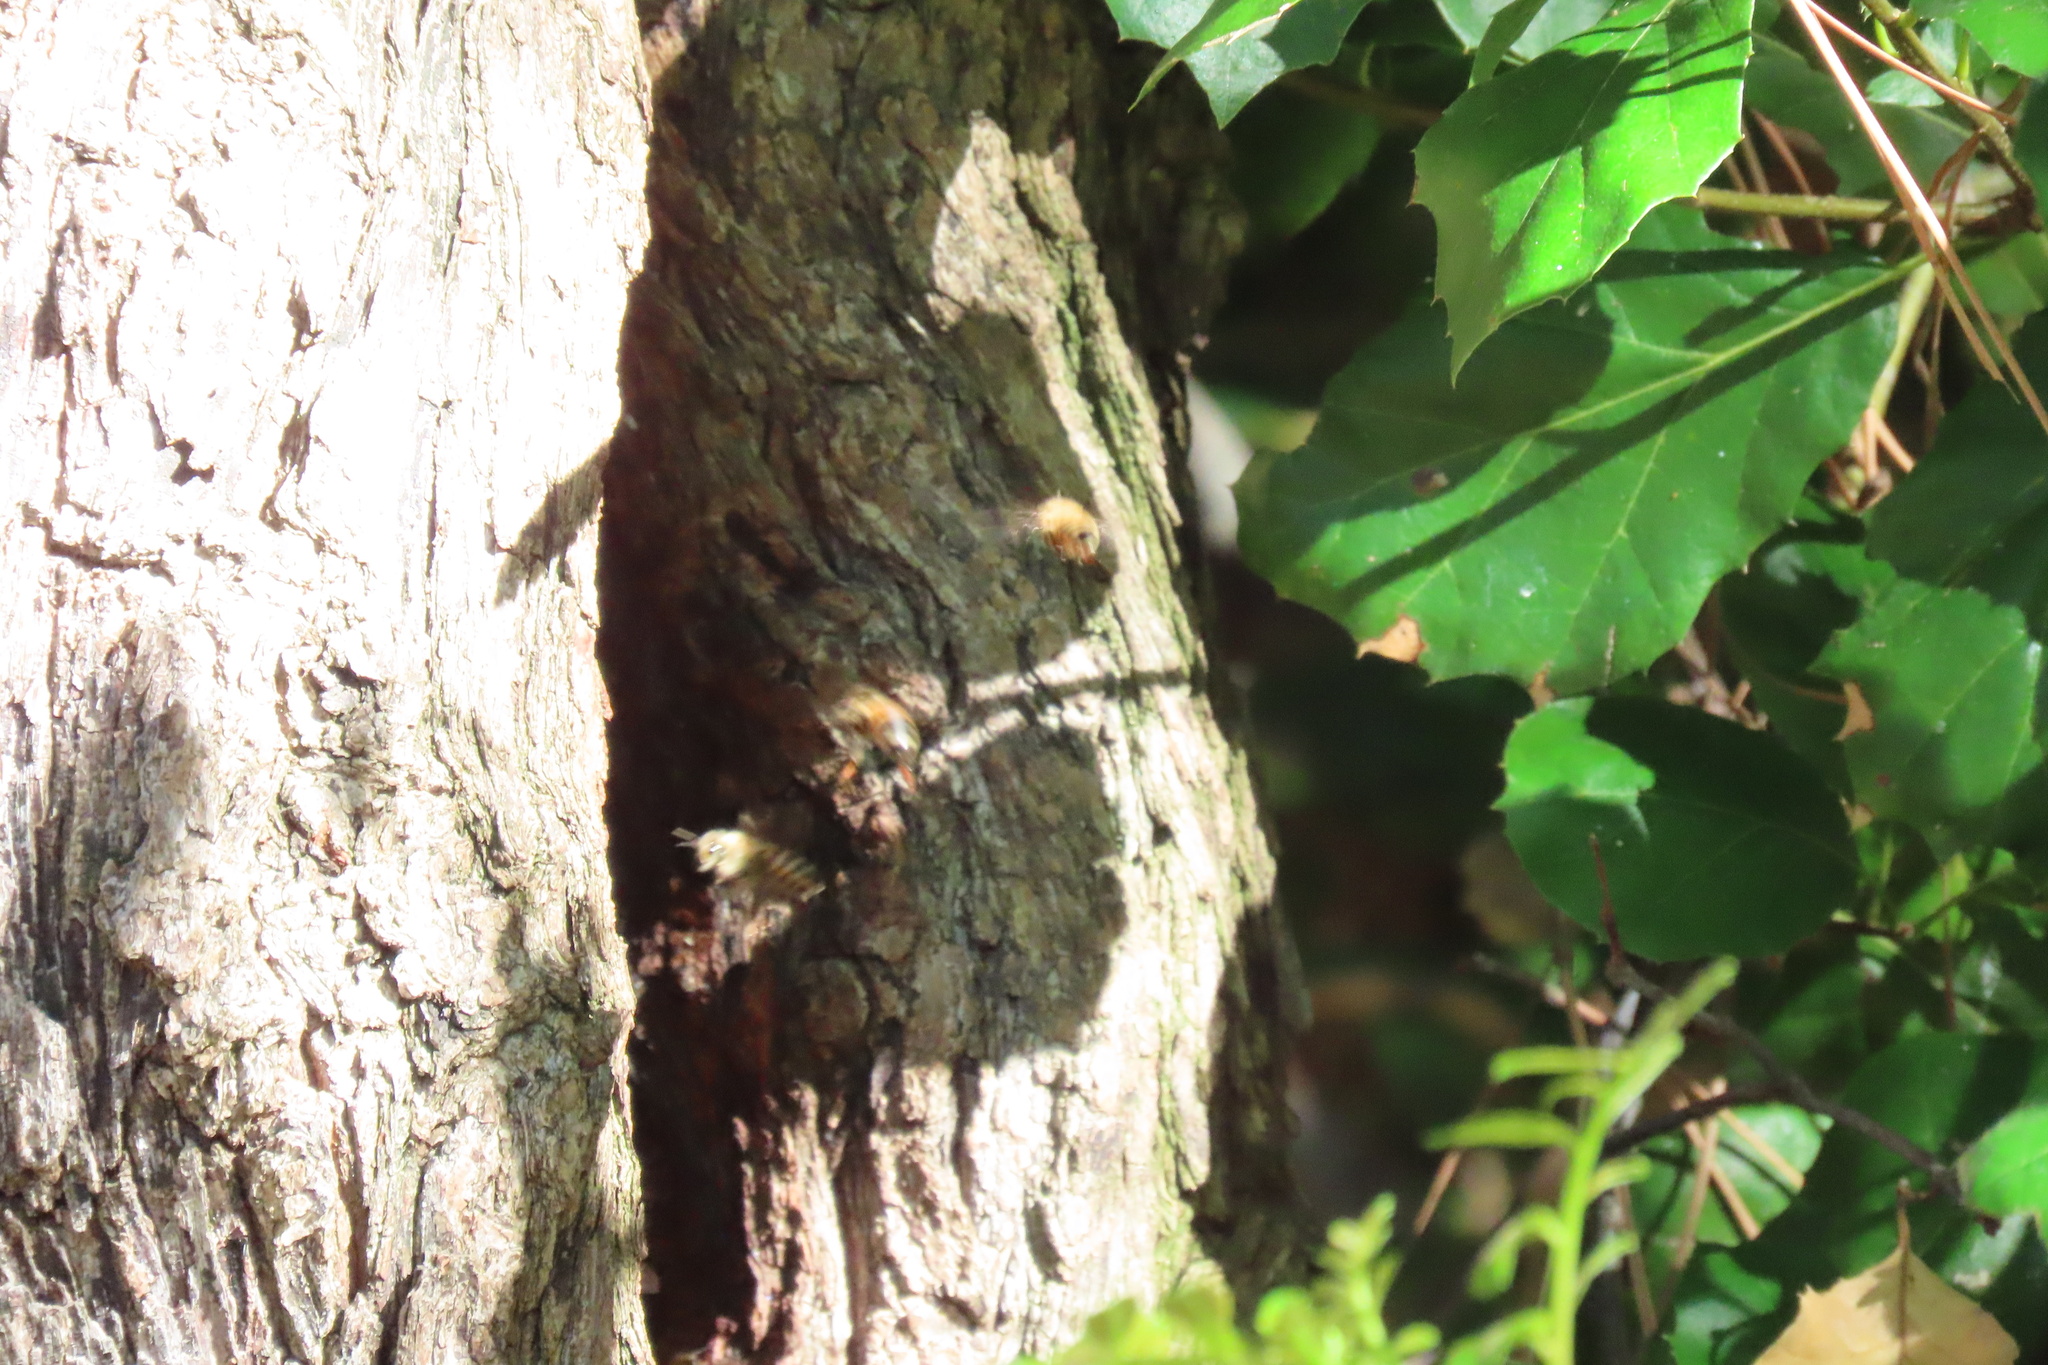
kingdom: Animalia
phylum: Arthropoda
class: Insecta
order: Hymenoptera
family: Apidae
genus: Apis
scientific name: Apis mellifera
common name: Honey bee
